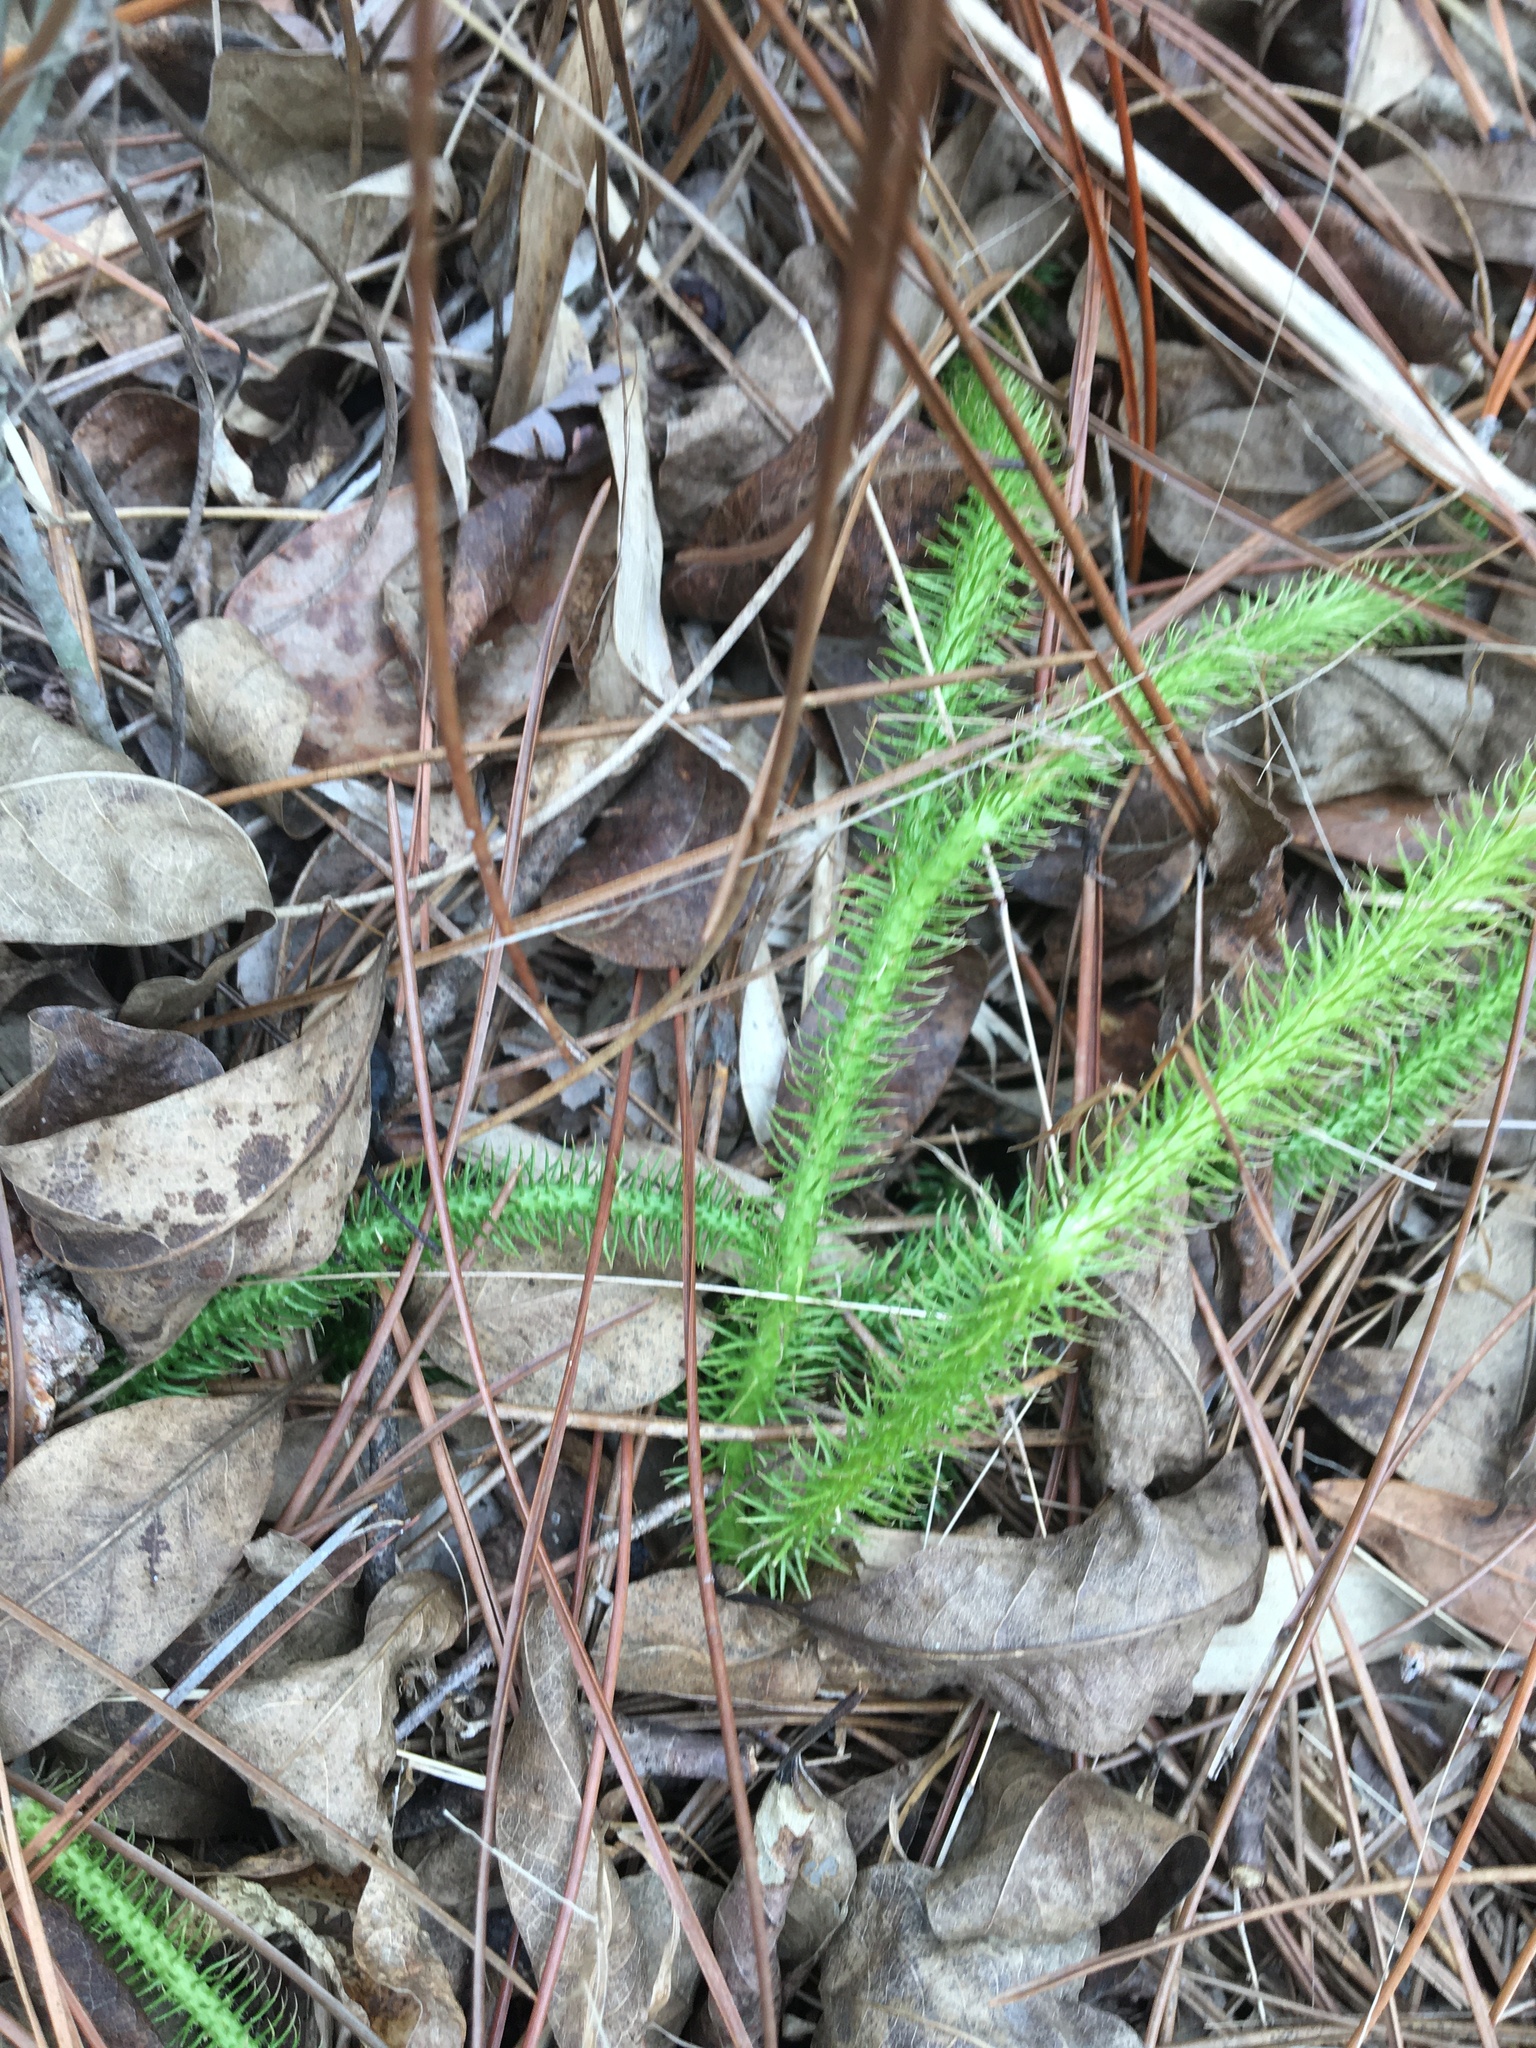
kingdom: Plantae
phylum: Tracheophyta
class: Lycopodiopsida
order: Lycopodiales
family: Lycopodiaceae
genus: Lycopodiella
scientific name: Lycopodiella alopecuroides
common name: Foxtail clubmoss
